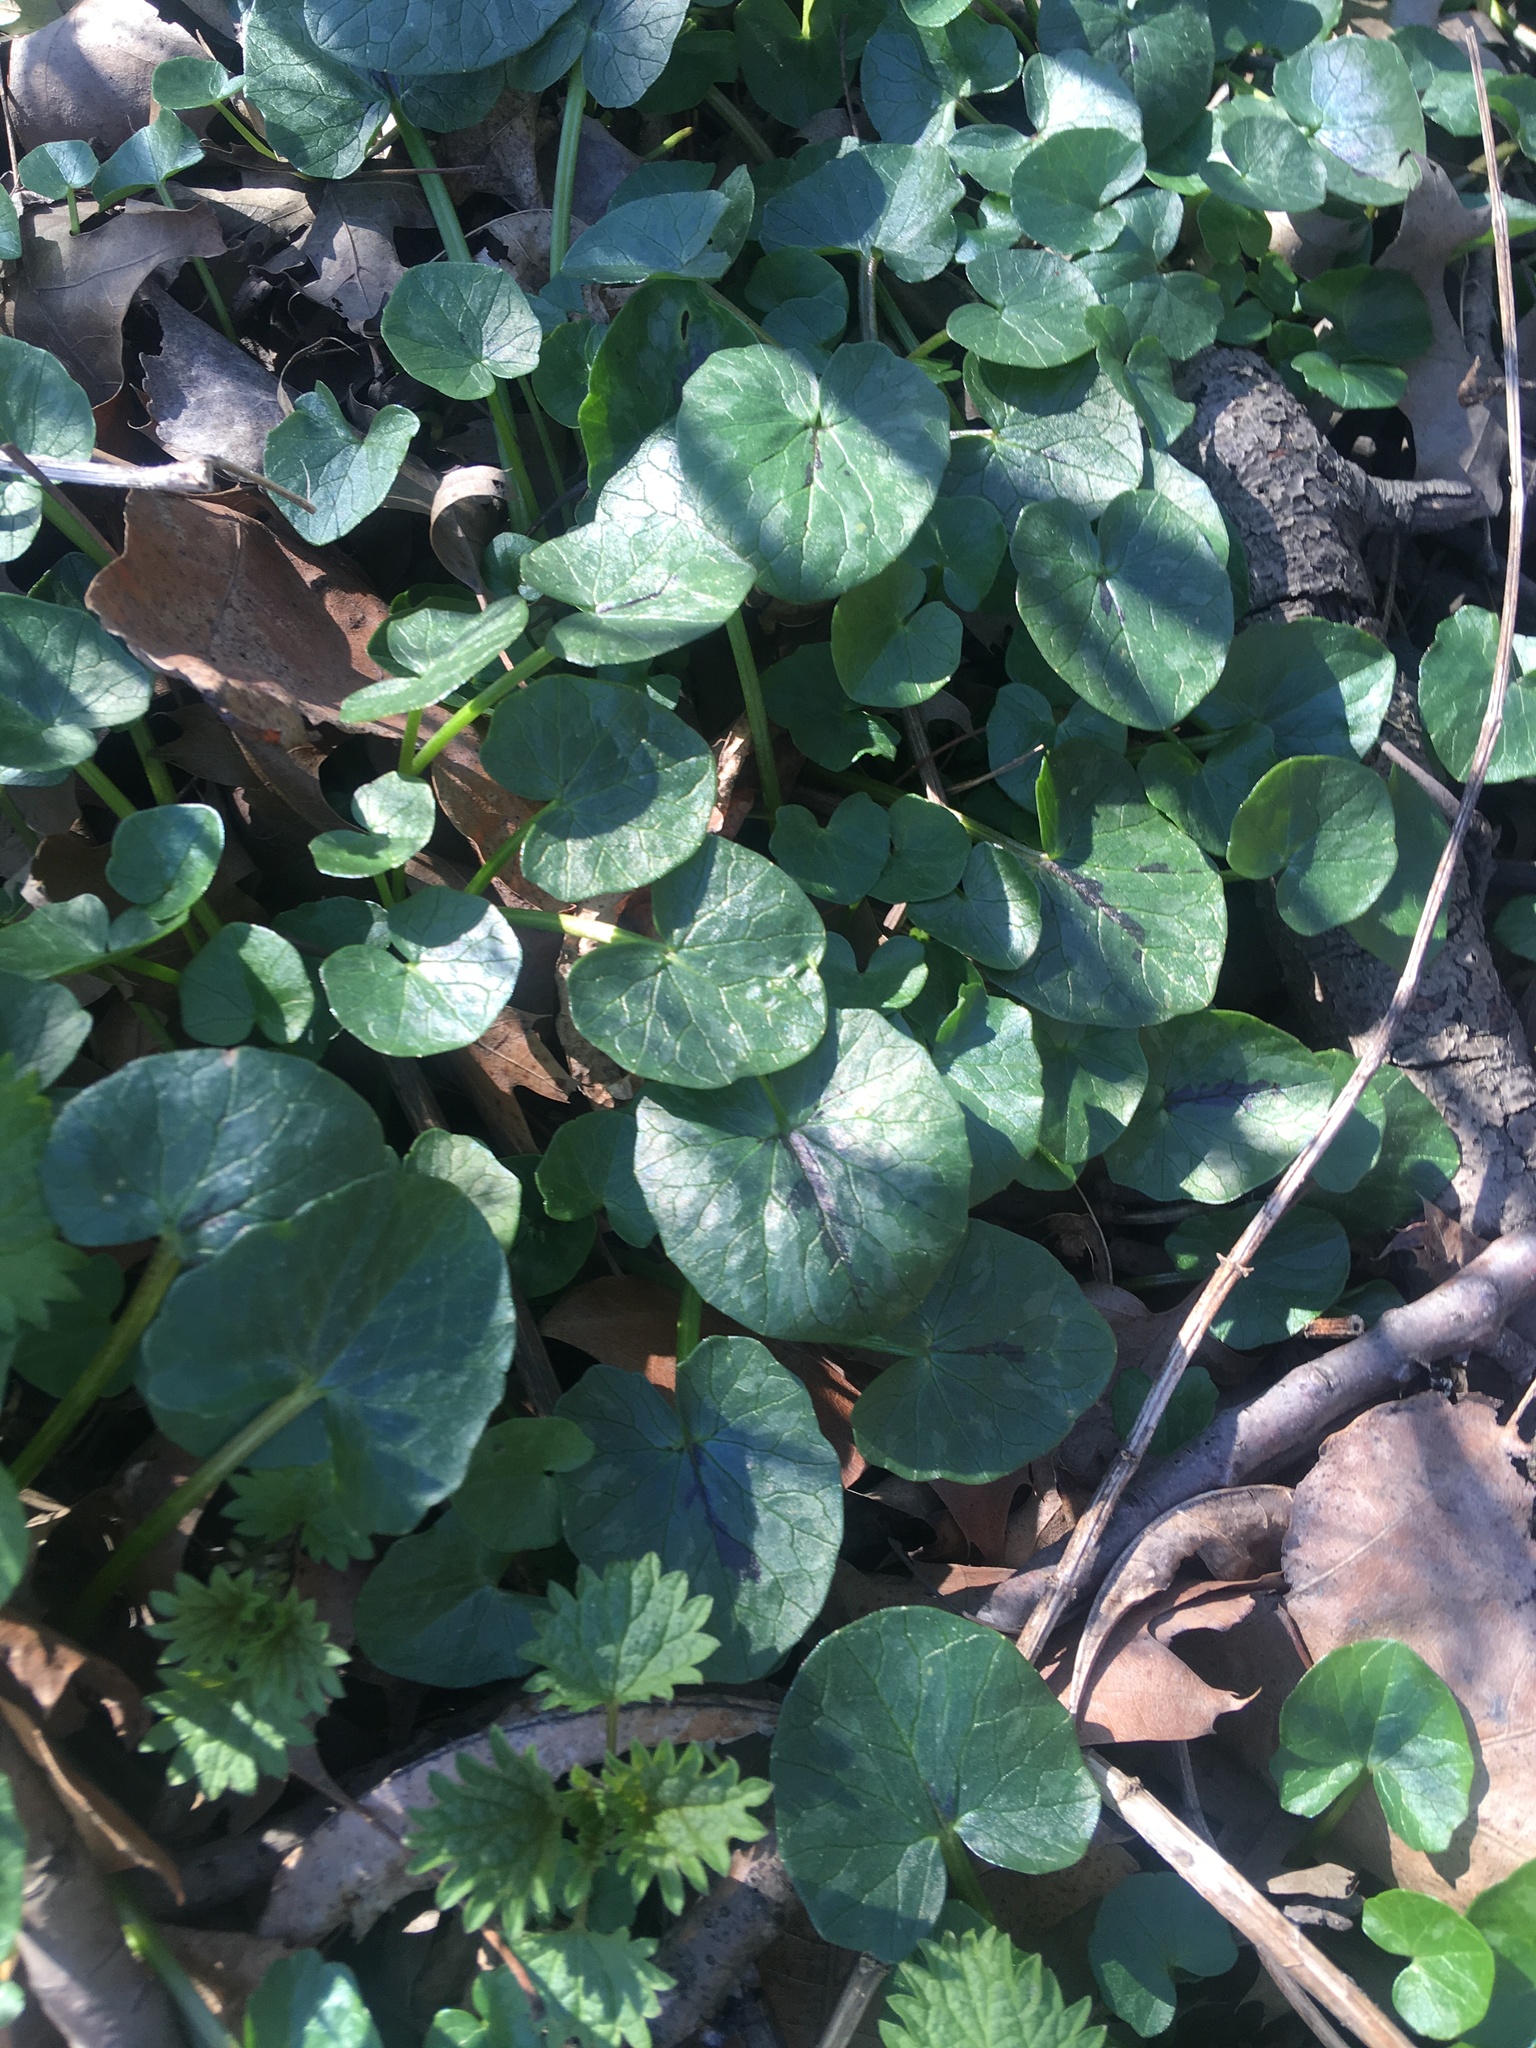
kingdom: Plantae
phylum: Tracheophyta
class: Magnoliopsida
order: Ranunculales
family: Ranunculaceae
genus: Ficaria
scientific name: Ficaria verna
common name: Lesser celandine
